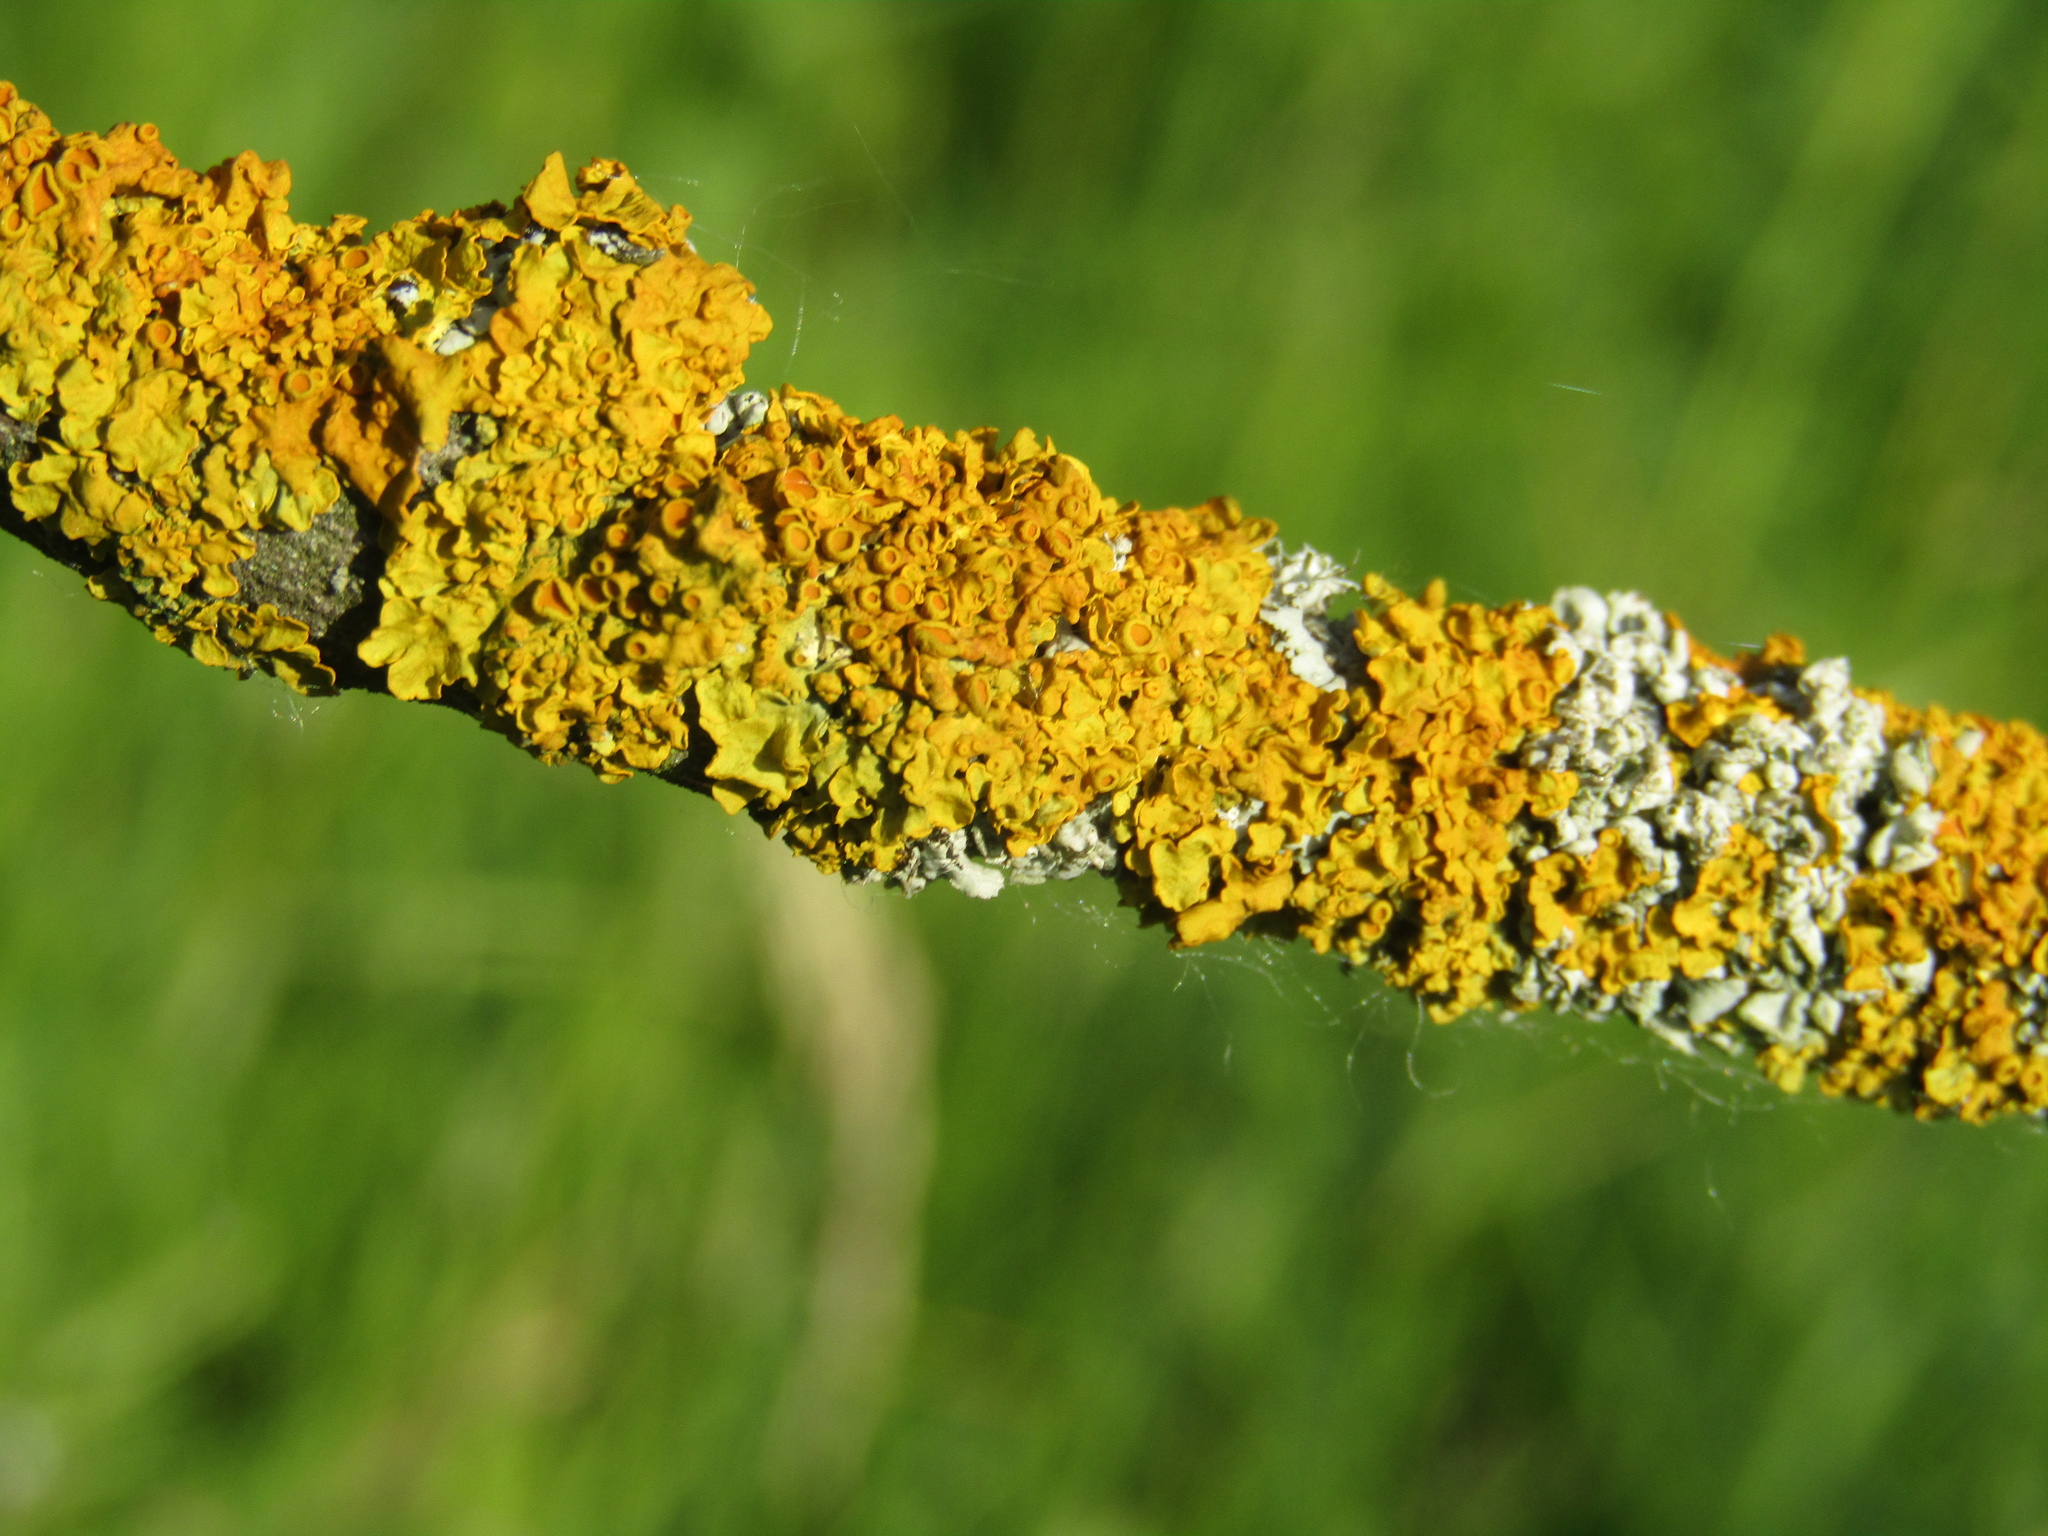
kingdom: Fungi
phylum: Ascomycota
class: Lecanoromycetes
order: Teloschistales
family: Teloschistaceae
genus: Xanthoria
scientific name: Xanthoria parietina
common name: Common orange lichen
